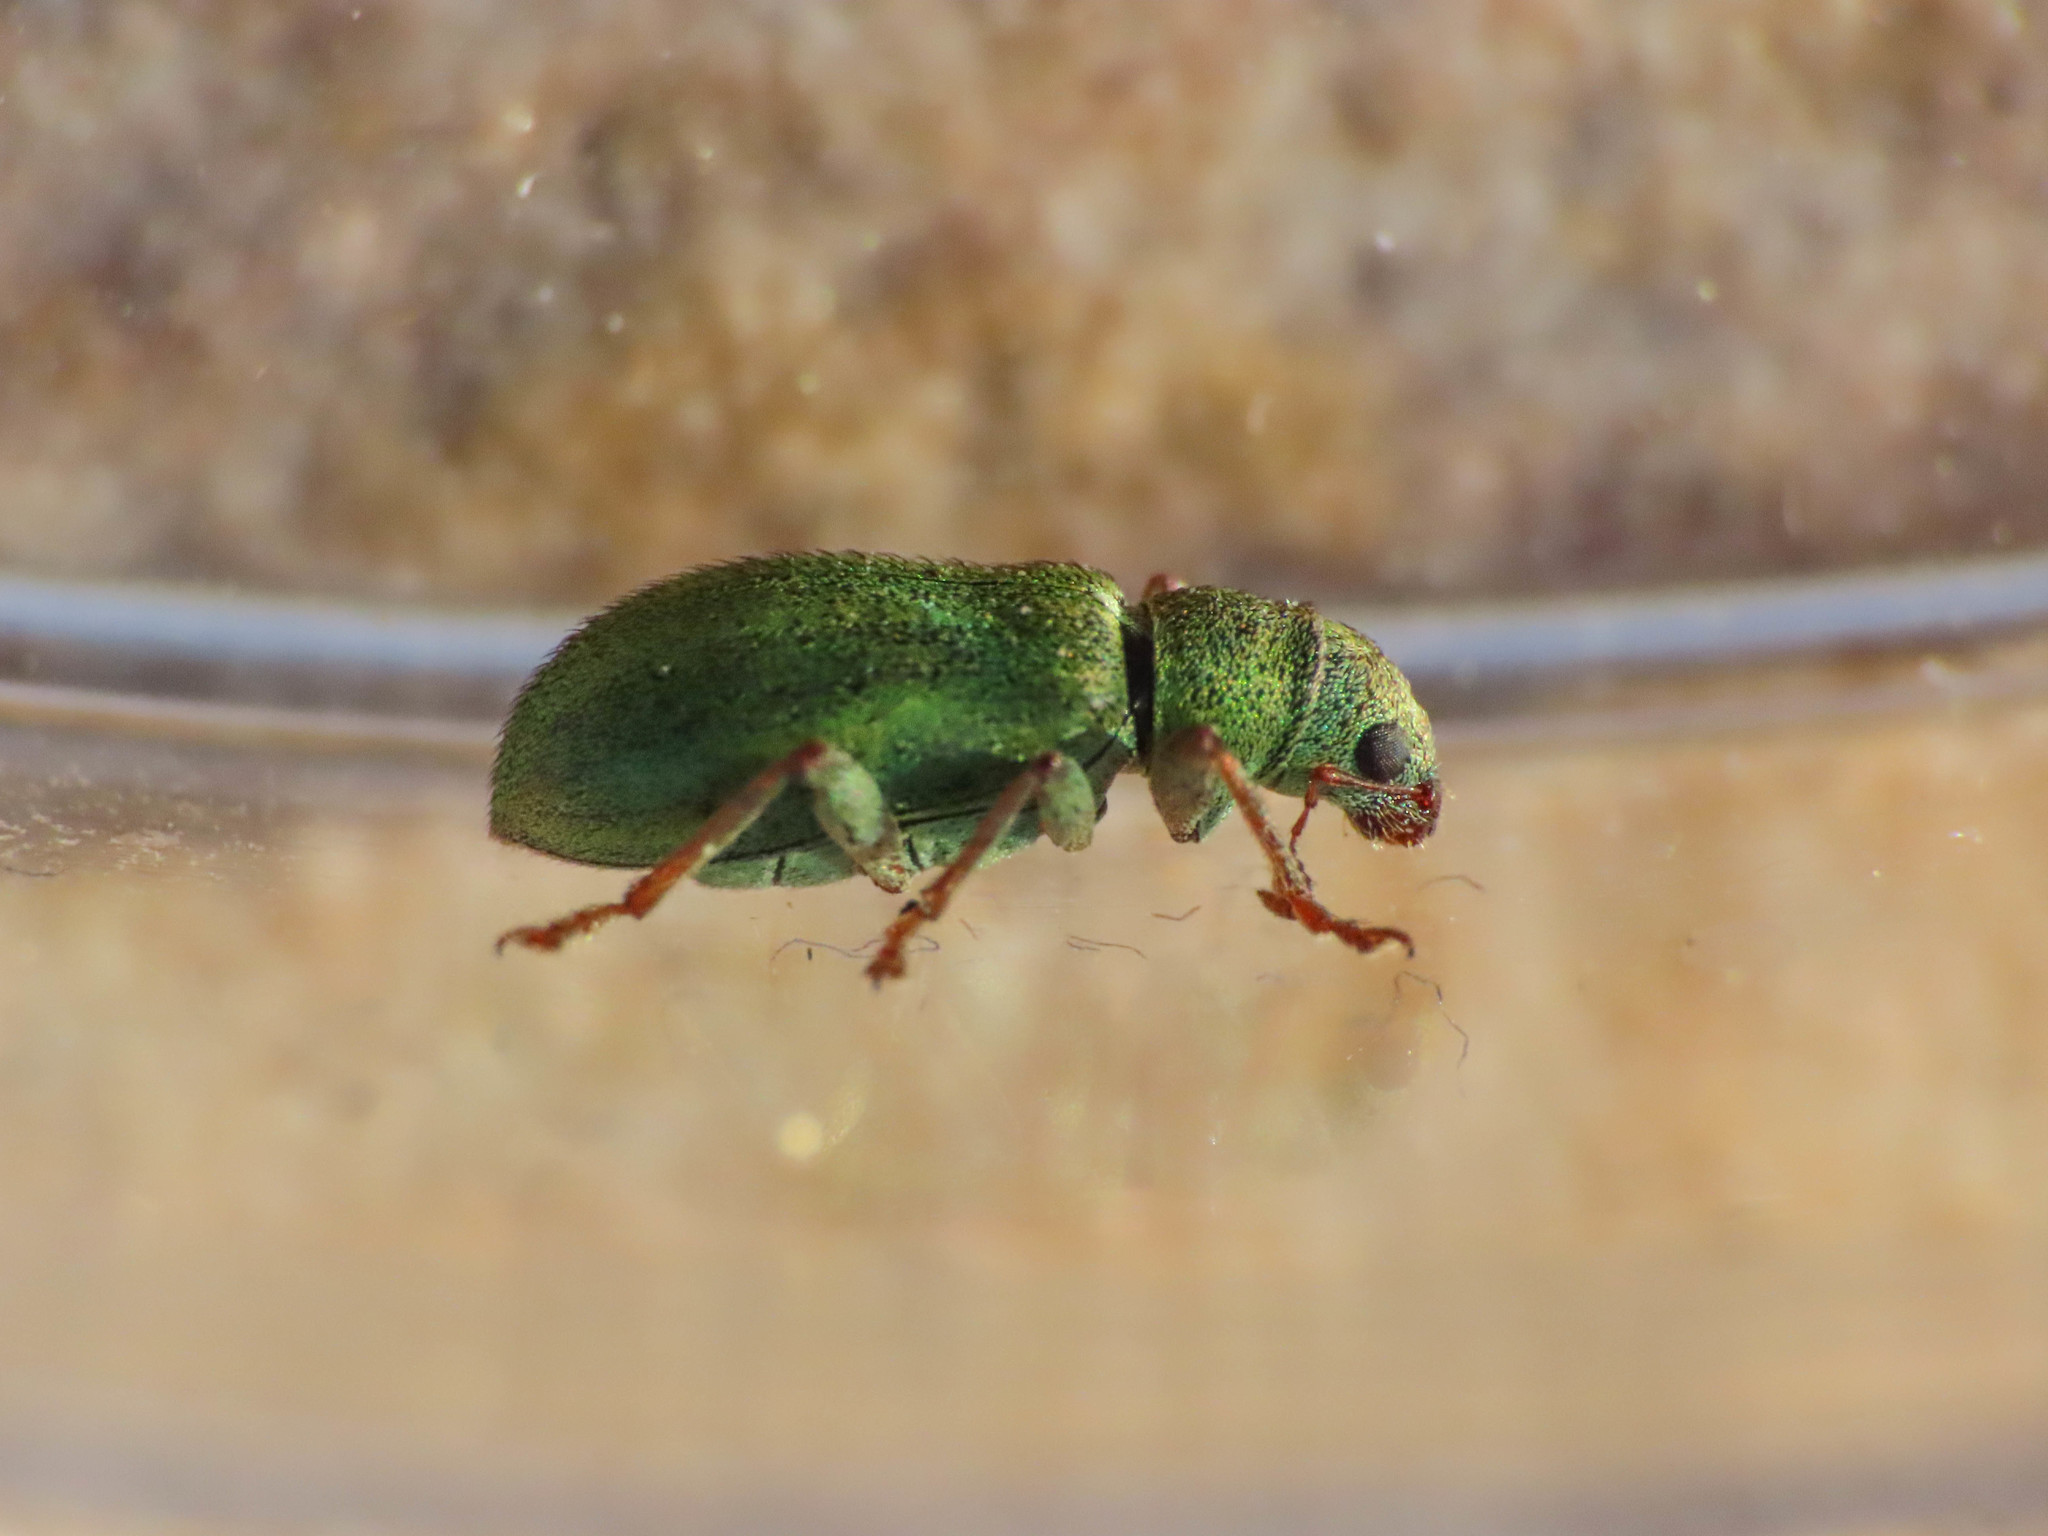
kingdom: Animalia
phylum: Arthropoda
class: Insecta
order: Coleoptera
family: Curculionidae
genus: Pachyrhinus
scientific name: Pachyrhinus lethierryi
